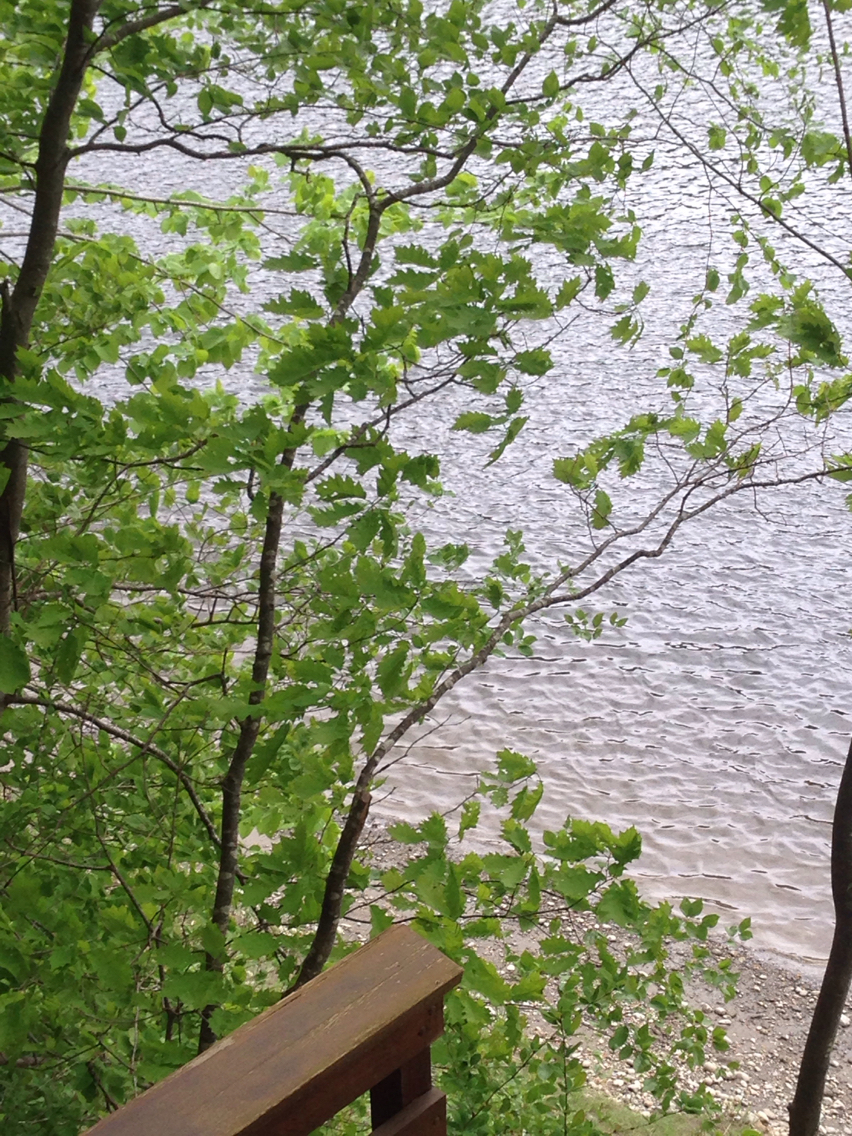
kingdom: Plantae
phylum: Tracheophyta
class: Magnoliopsida
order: Fagales
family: Fagaceae
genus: Quercus
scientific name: Quercus rubra
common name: Red oak
